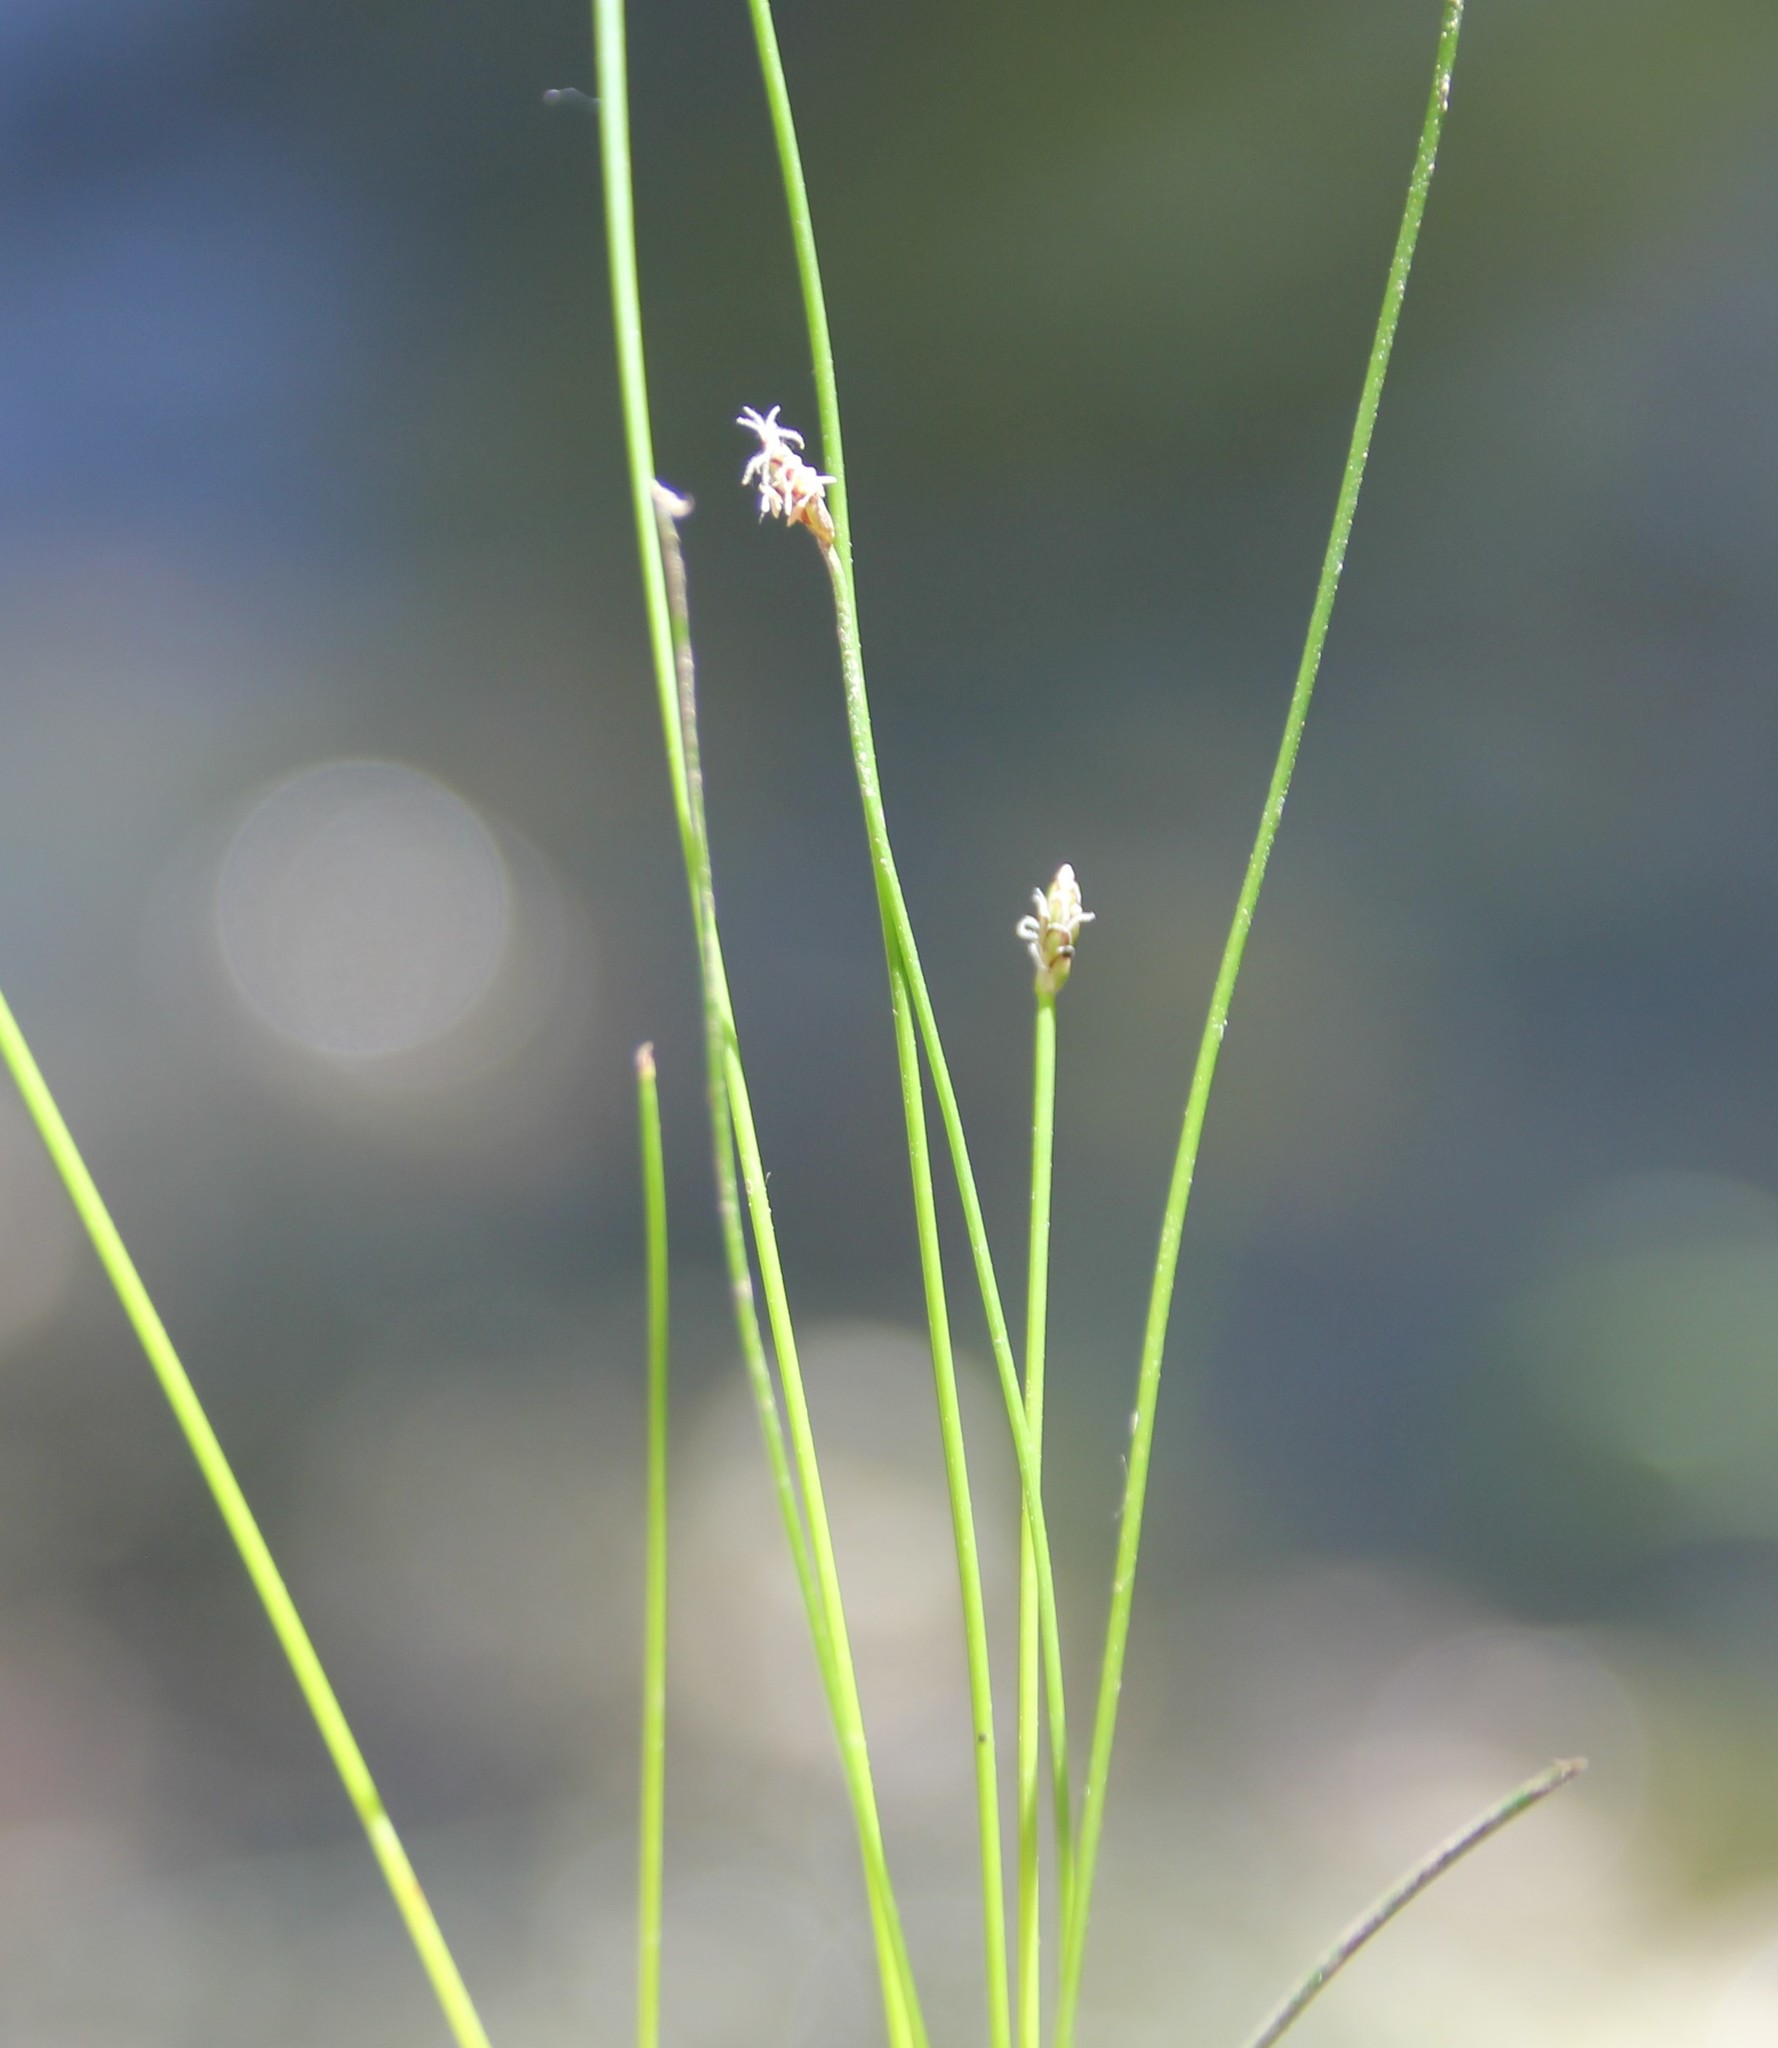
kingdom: Plantae
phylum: Tracheophyta
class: Liliopsida
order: Poales
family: Cyperaceae
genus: Eleocharis
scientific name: Eleocharis montevidensis
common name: Sand spike-rush
